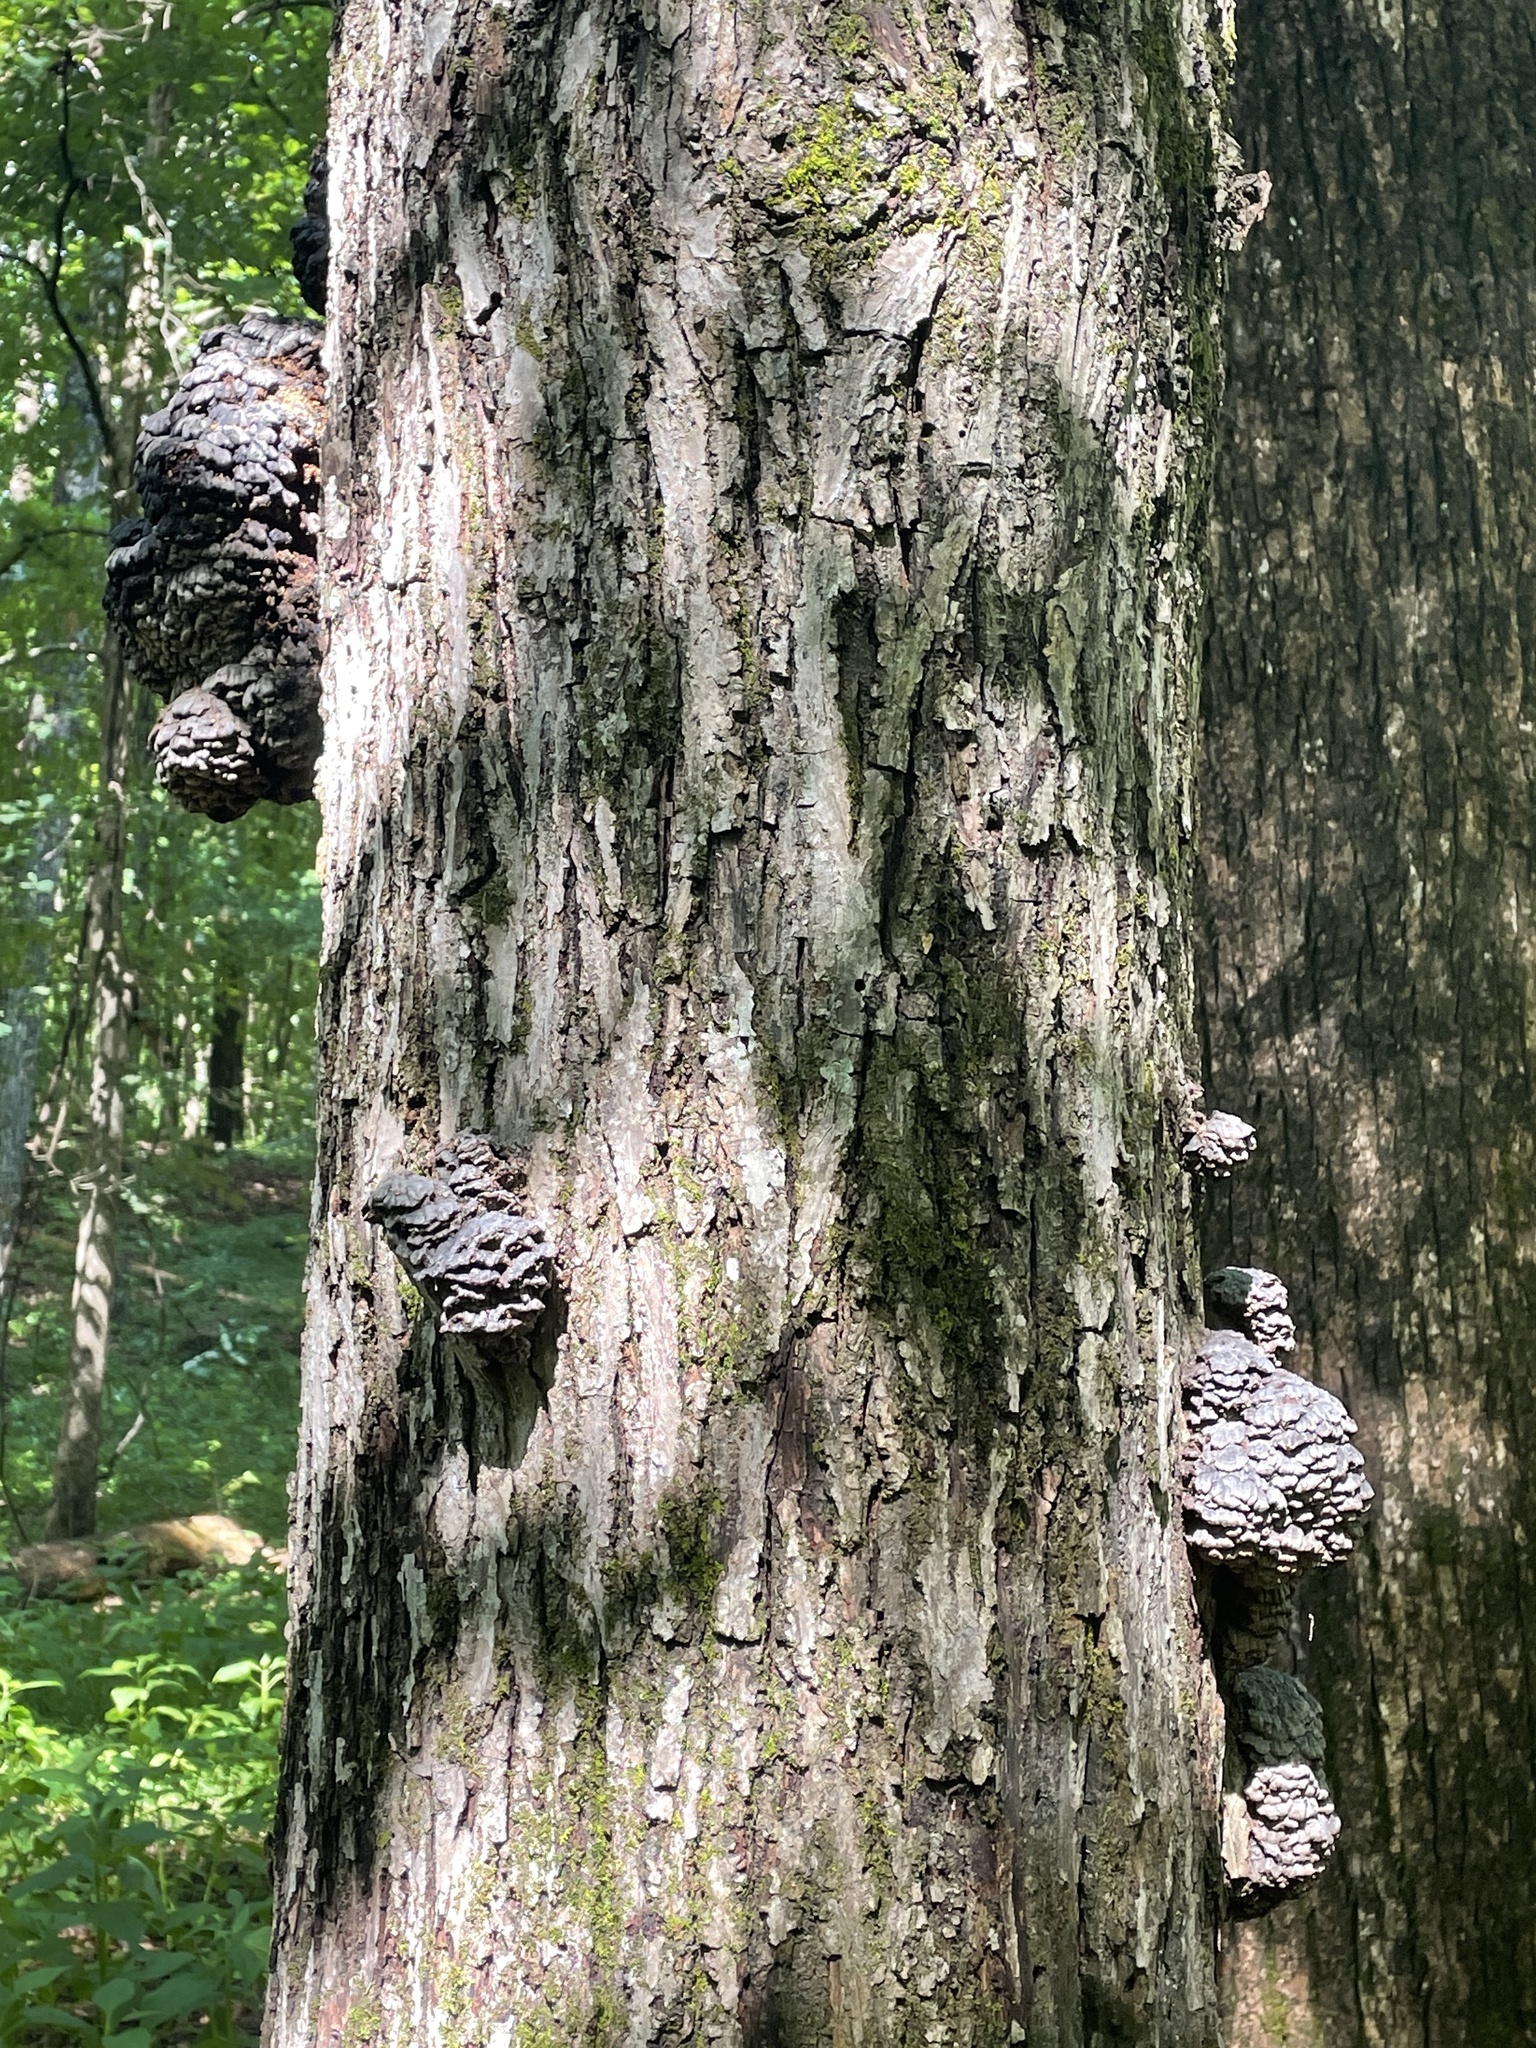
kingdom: Fungi
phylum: Basidiomycota
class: Agaricomycetes
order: Polyporales
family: Polyporaceae
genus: Globifomes
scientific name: Globifomes graveolens
